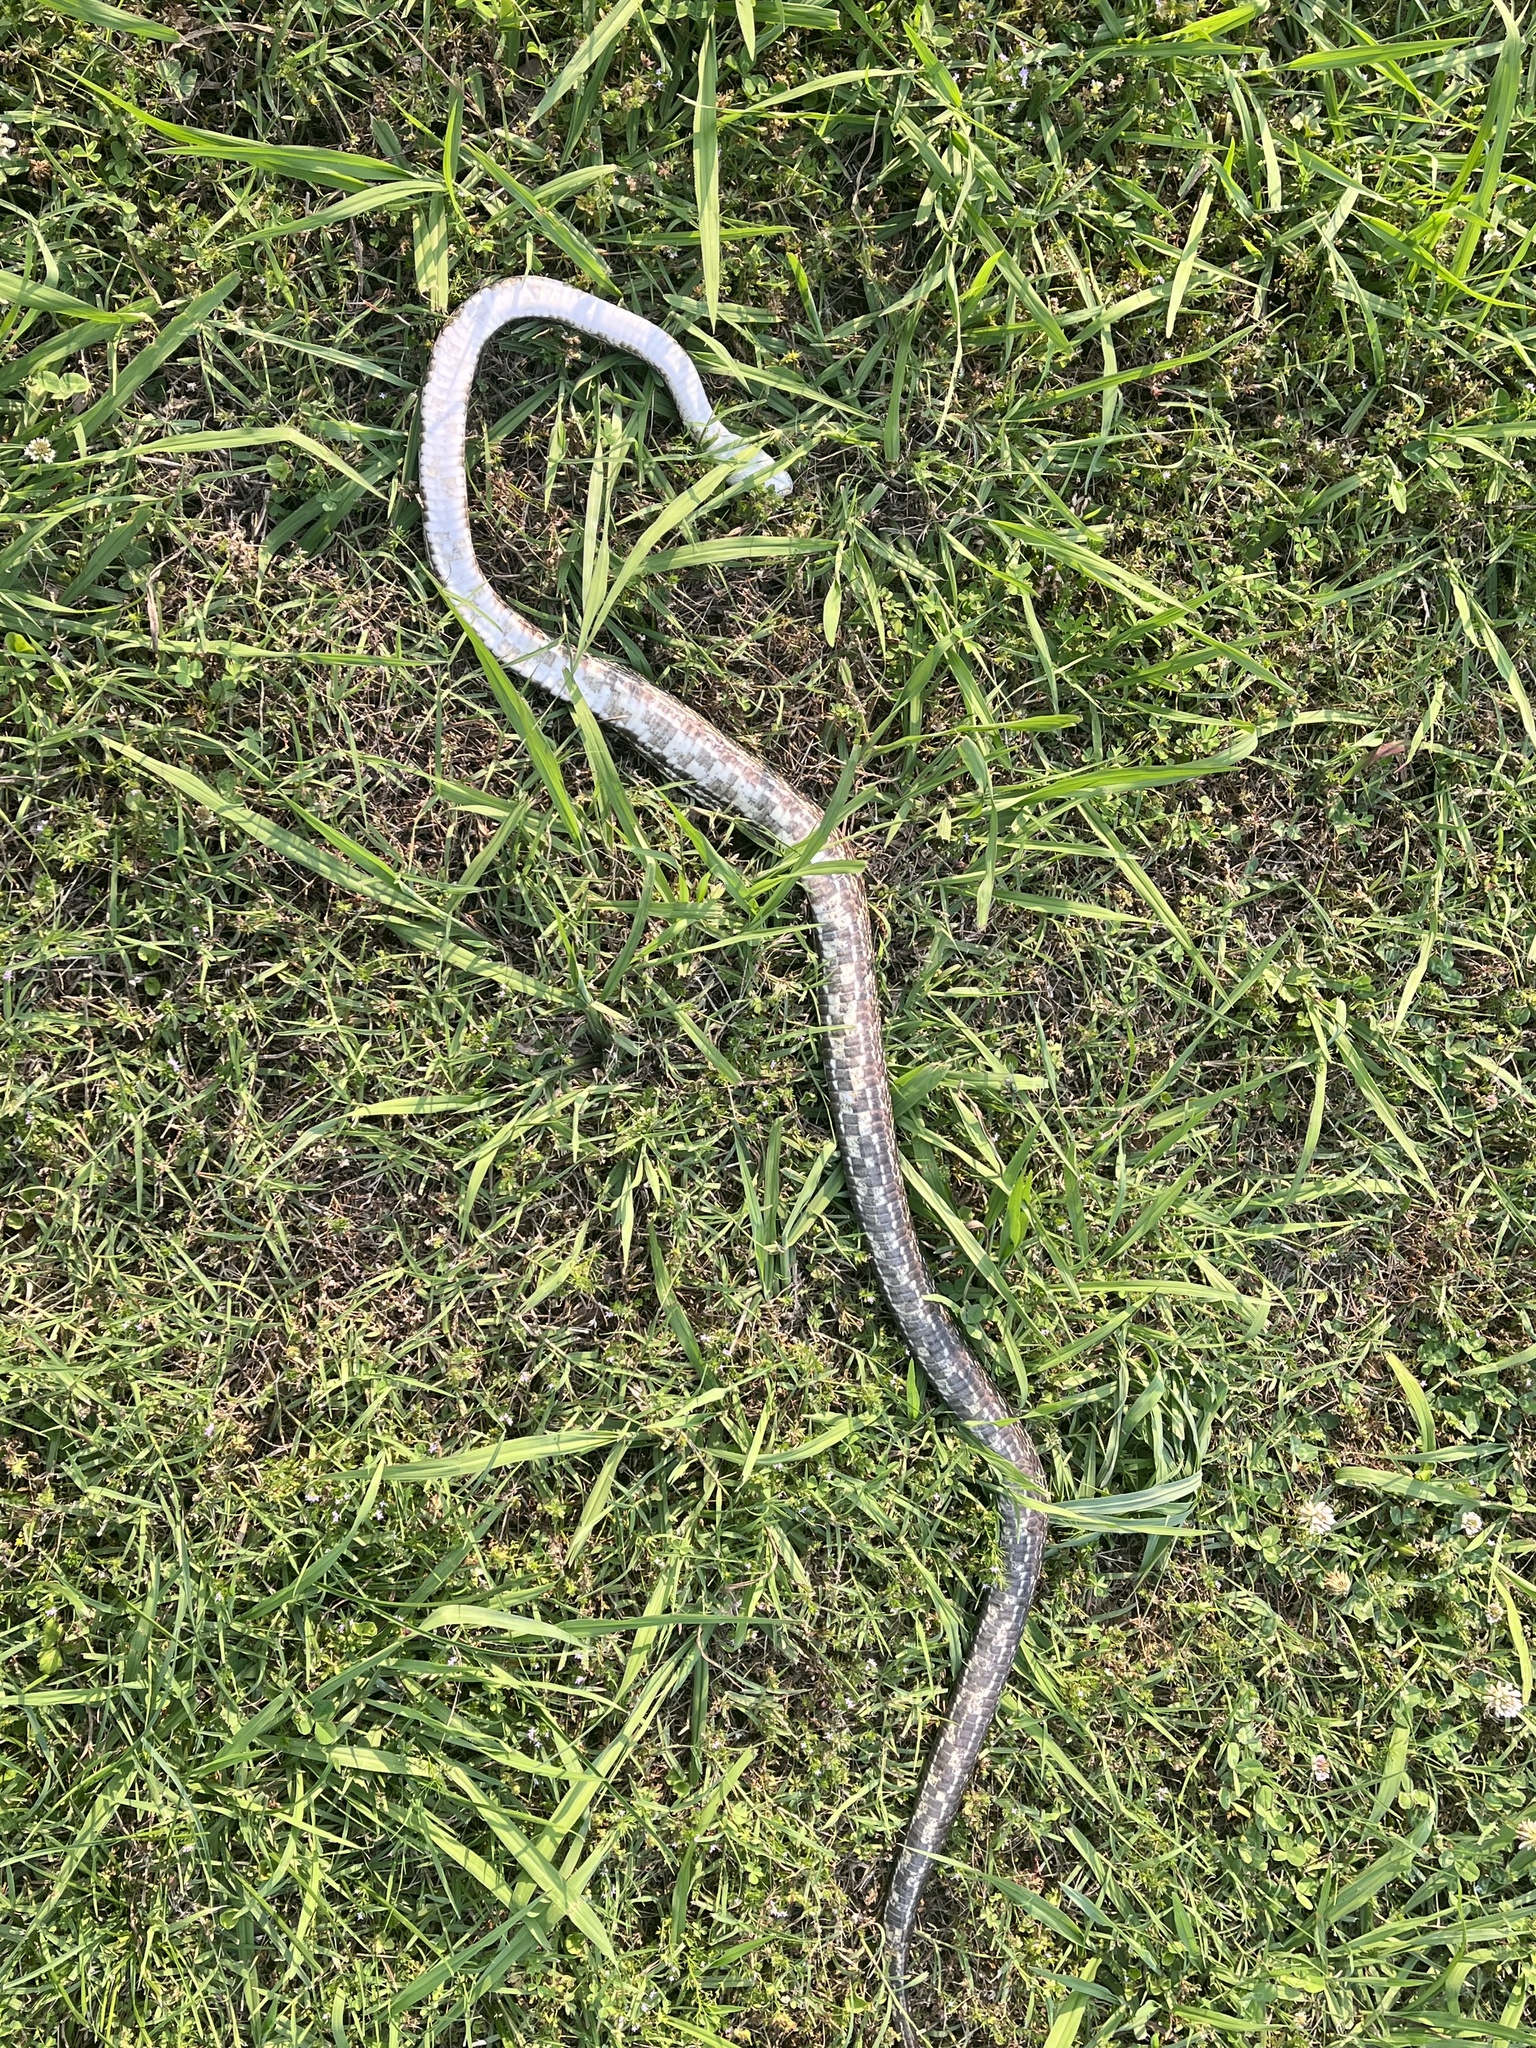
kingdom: Animalia
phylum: Chordata
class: Squamata
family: Colubridae
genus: Pantherophis
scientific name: Pantherophis spiloides
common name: Gray rat snake
